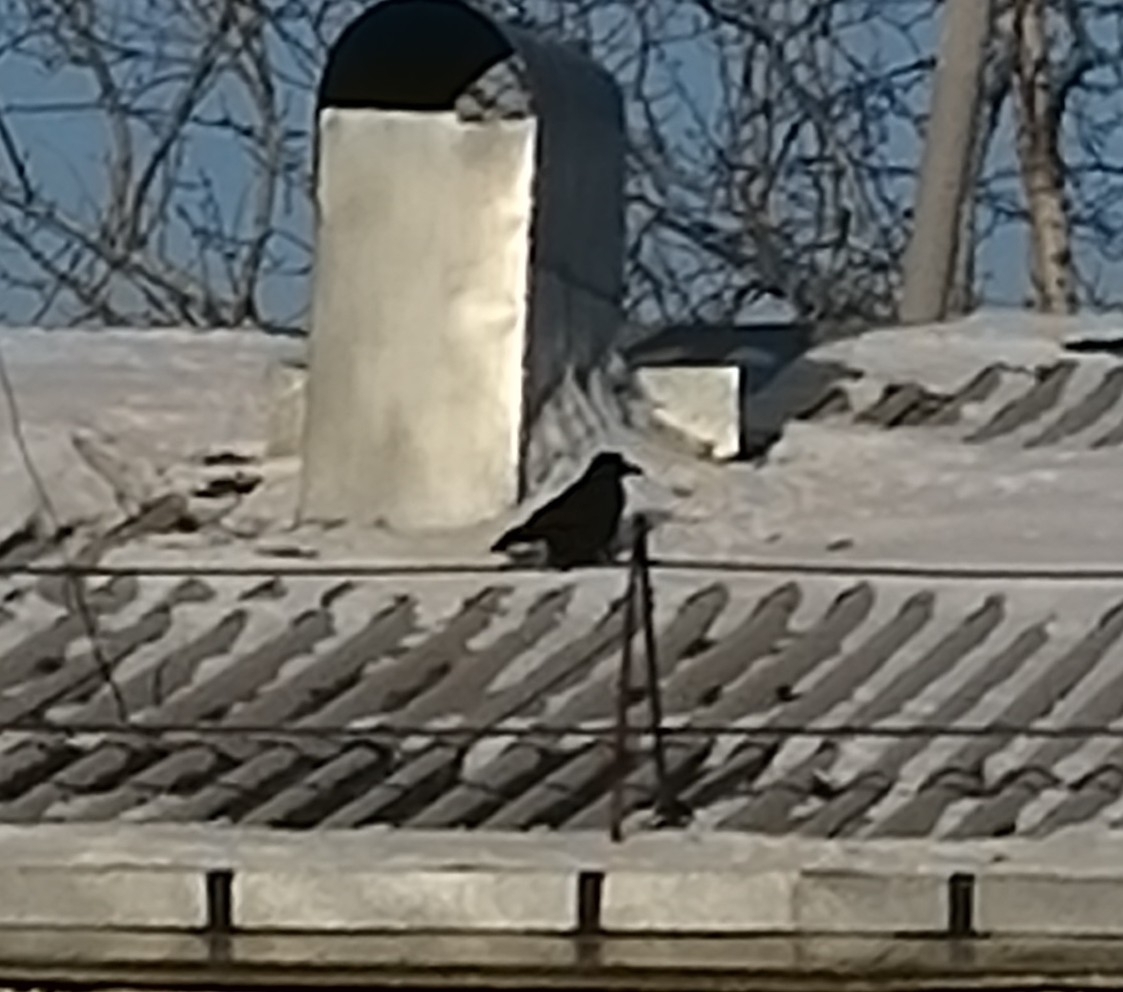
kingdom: Animalia
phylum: Chordata
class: Aves
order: Passeriformes
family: Corvidae
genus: Corvus
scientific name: Corvus corone
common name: Carrion crow
